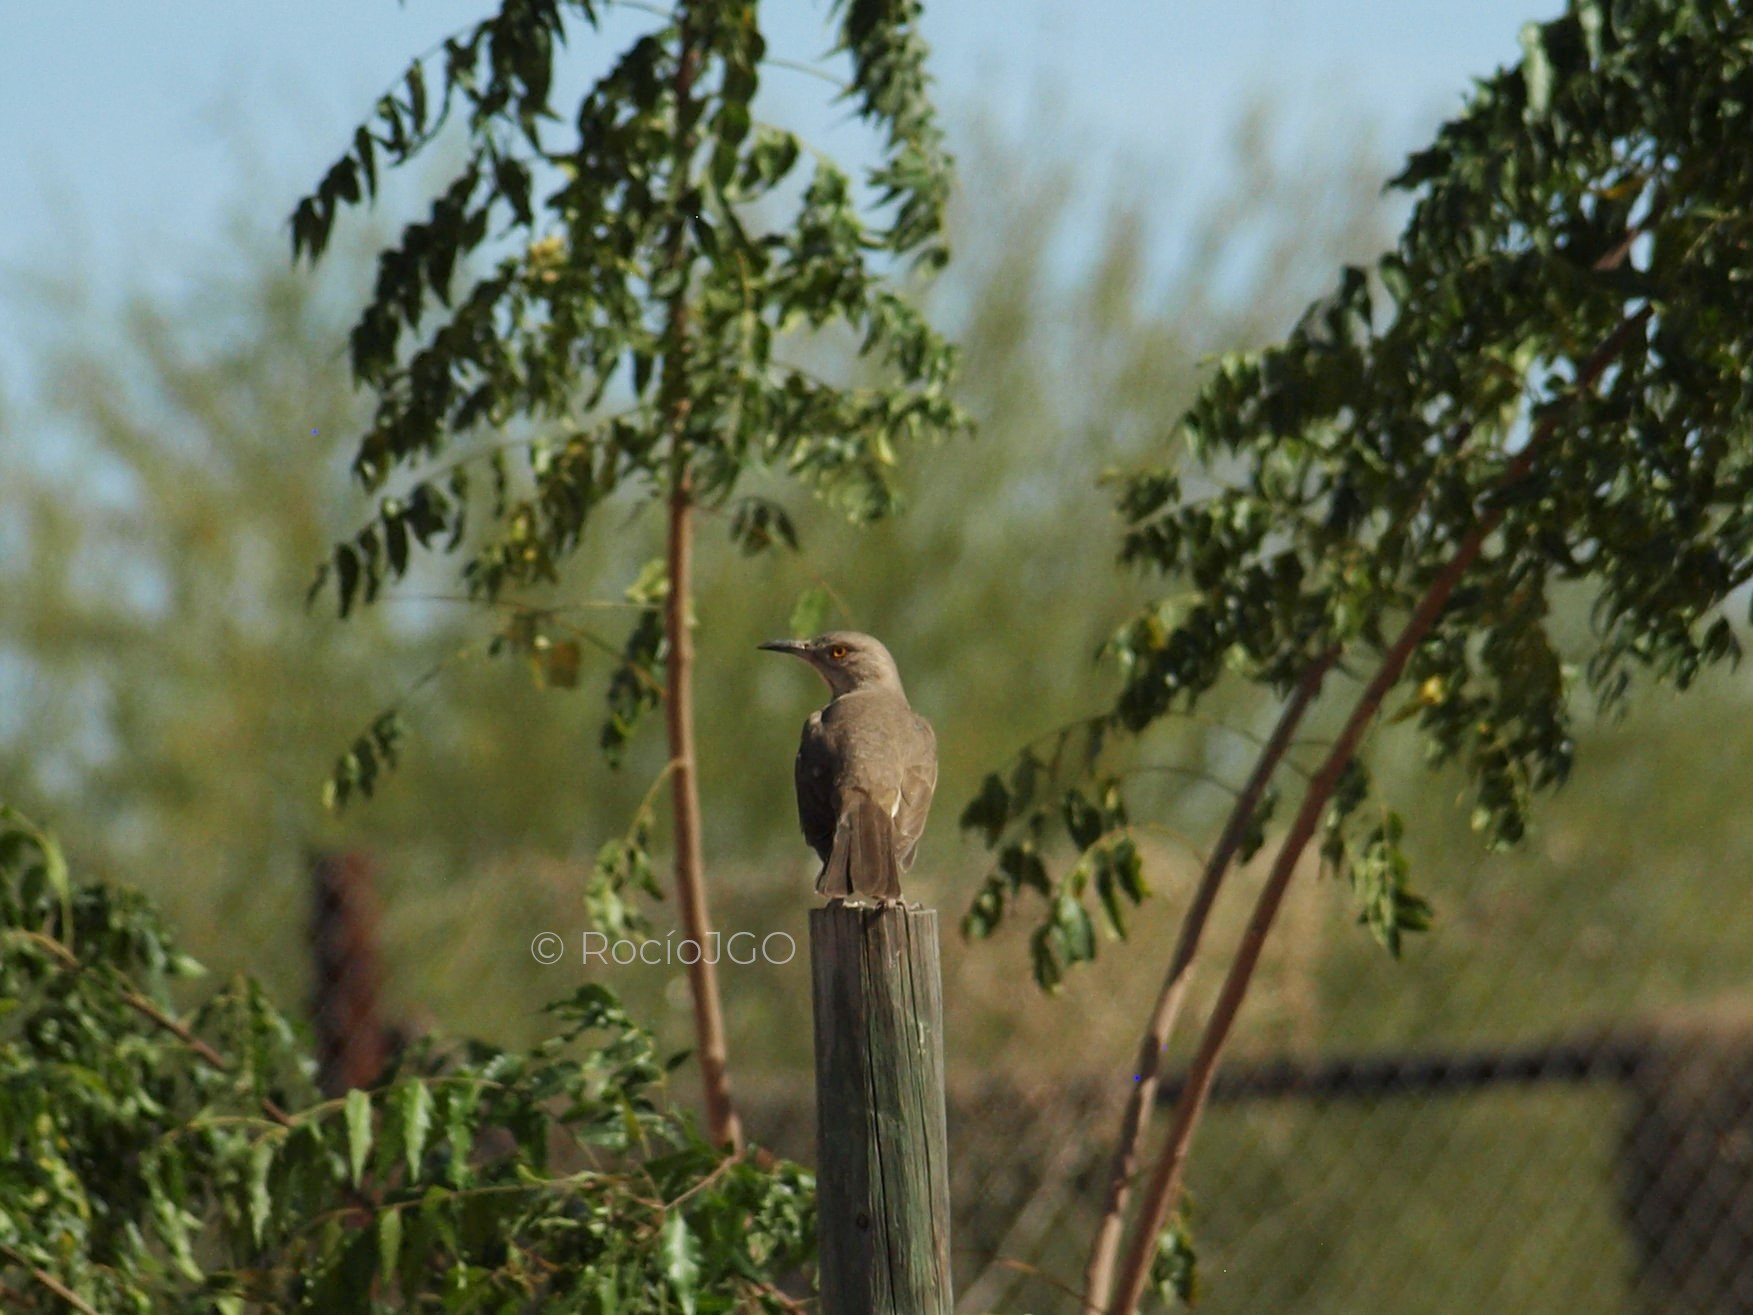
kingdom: Animalia
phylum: Chordata
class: Aves
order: Passeriformes
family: Mimidae
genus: Toxostoma
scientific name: Toxostoma bendirei
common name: Bendire's thrasher
